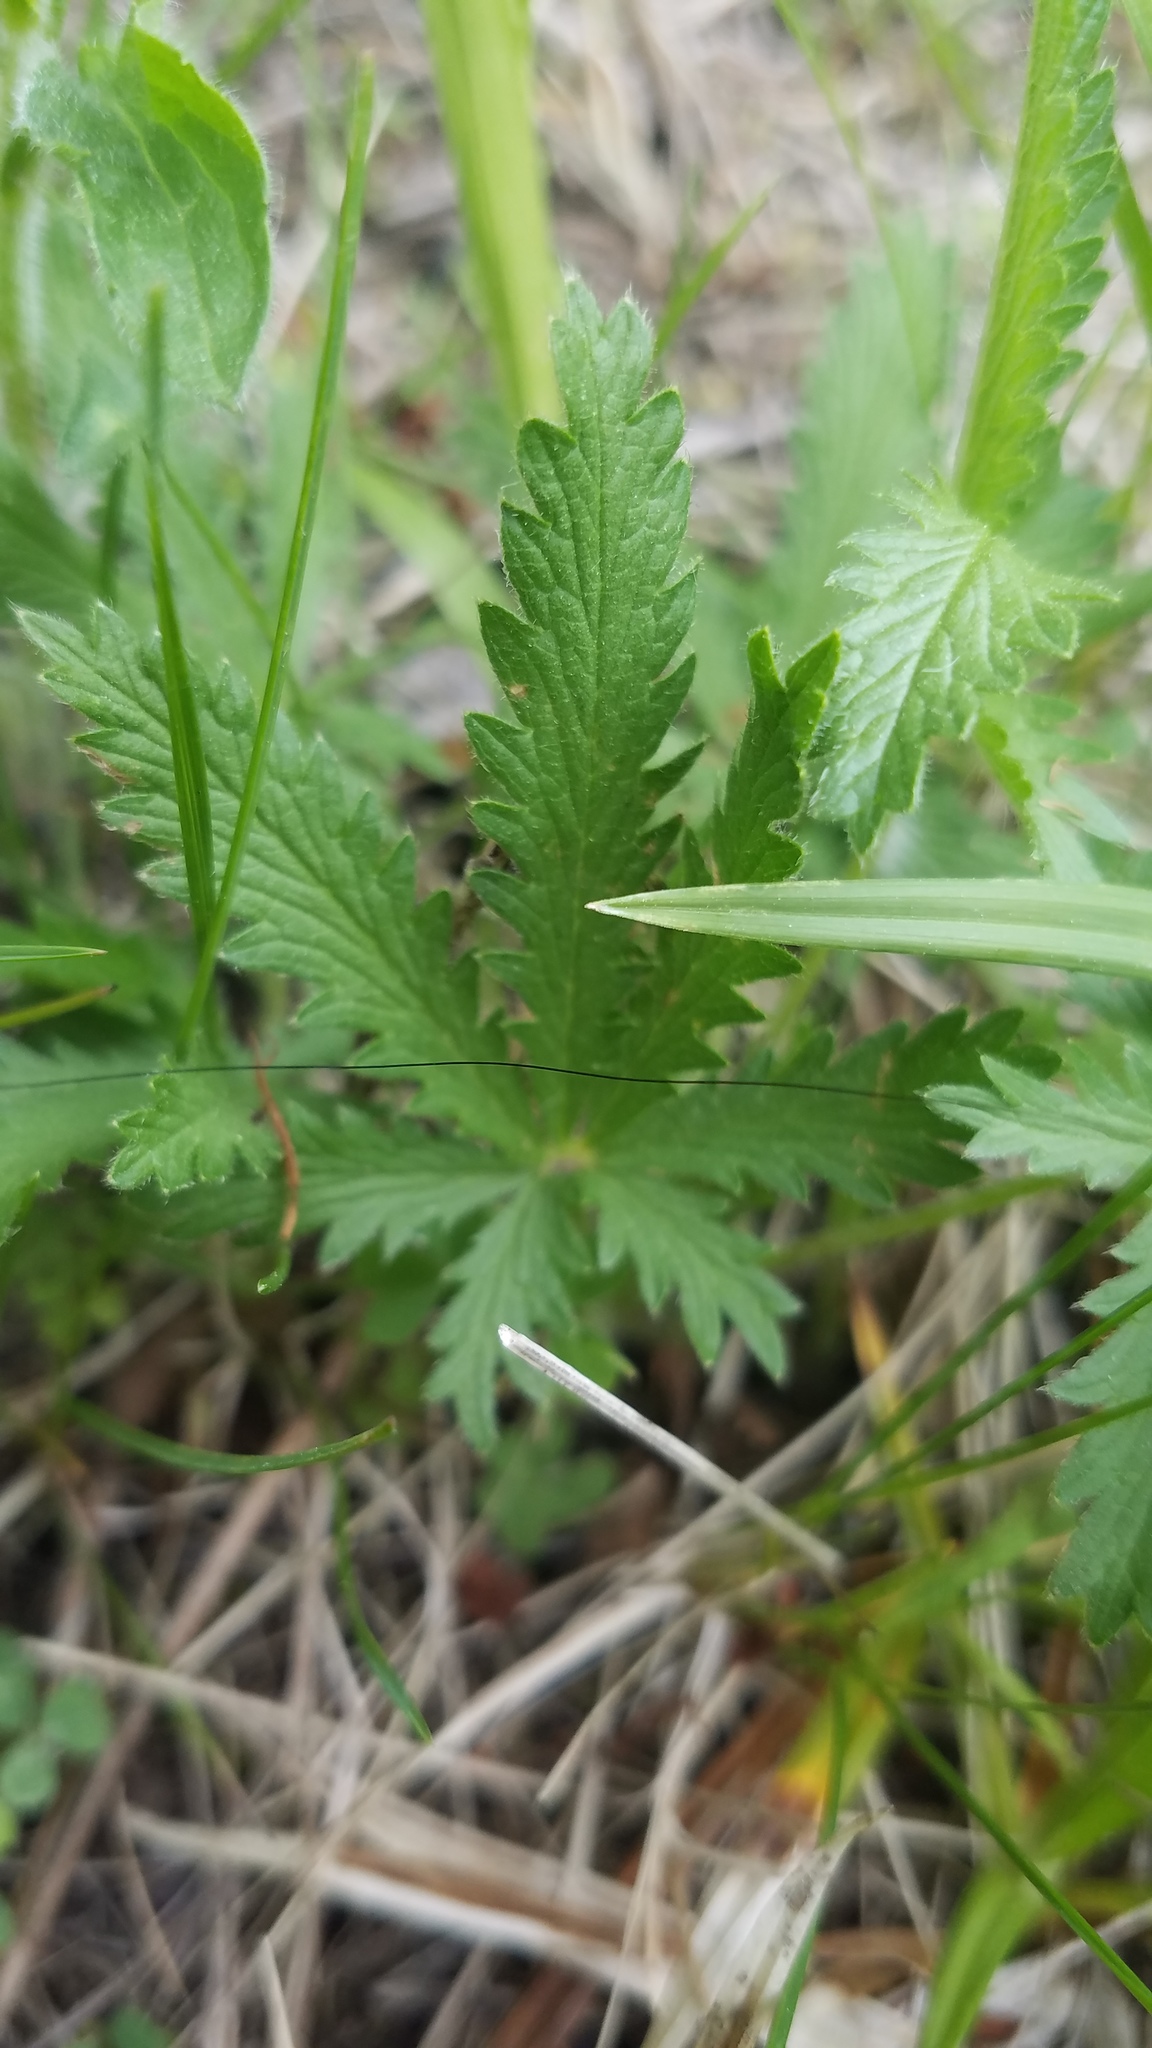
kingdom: Plantae
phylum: Tracheophyta
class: Magnoliopsida
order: Rosales
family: Rosaceae
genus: Potentilla
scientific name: Potentilla recta
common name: Sulphur cinquefoil
